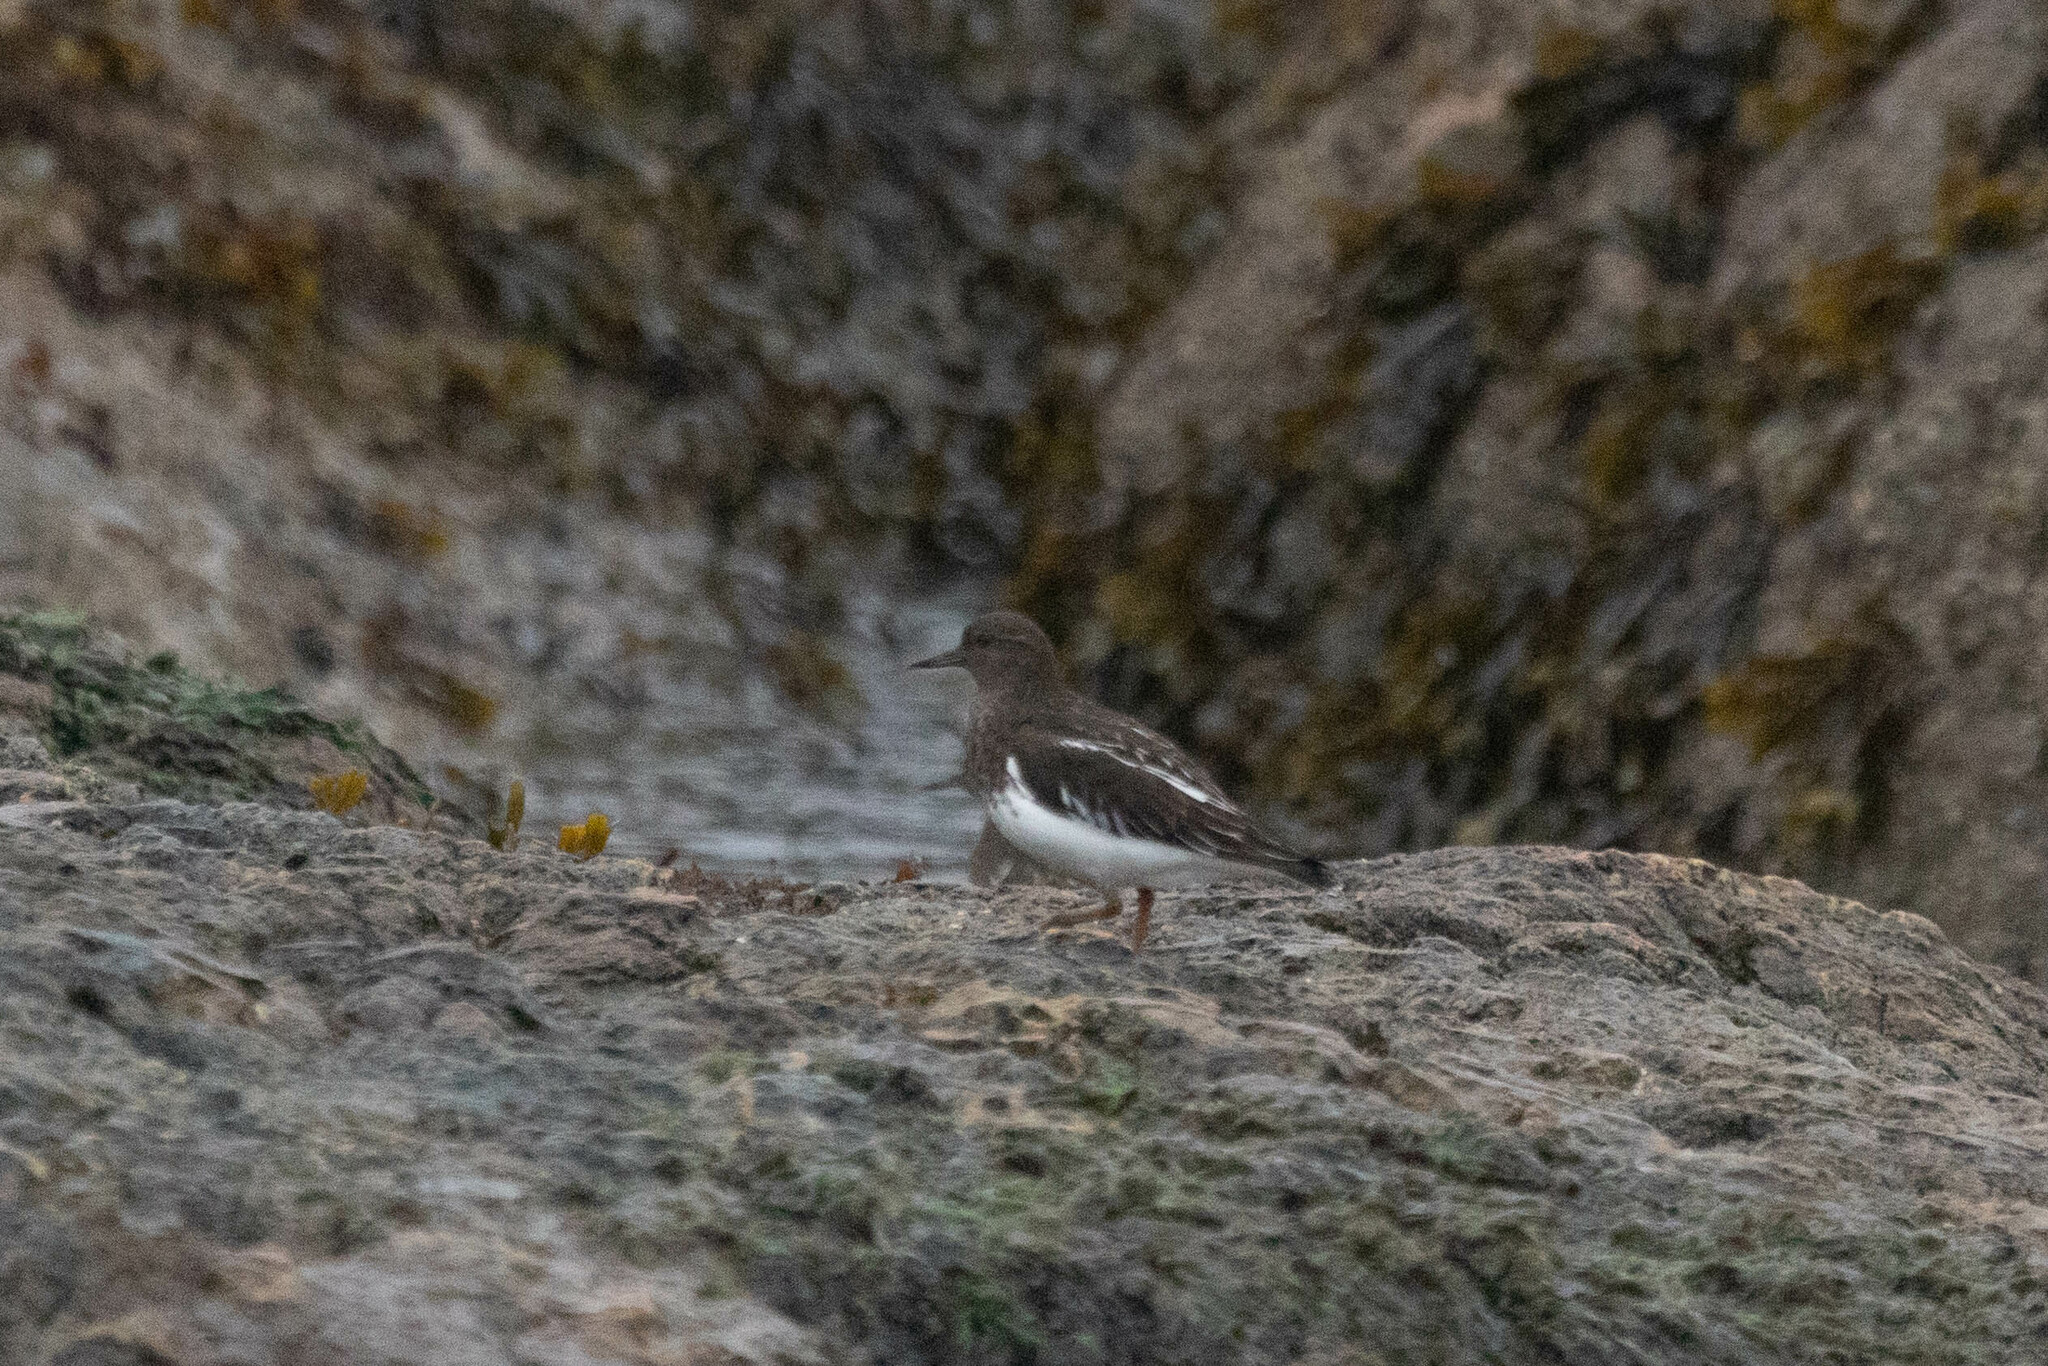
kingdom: Animalia
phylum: Chordata
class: Aves
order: Charadriiformes
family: Scolopacidae
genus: Arenaria
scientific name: Arenaria melanocephala
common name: Black turnstone
